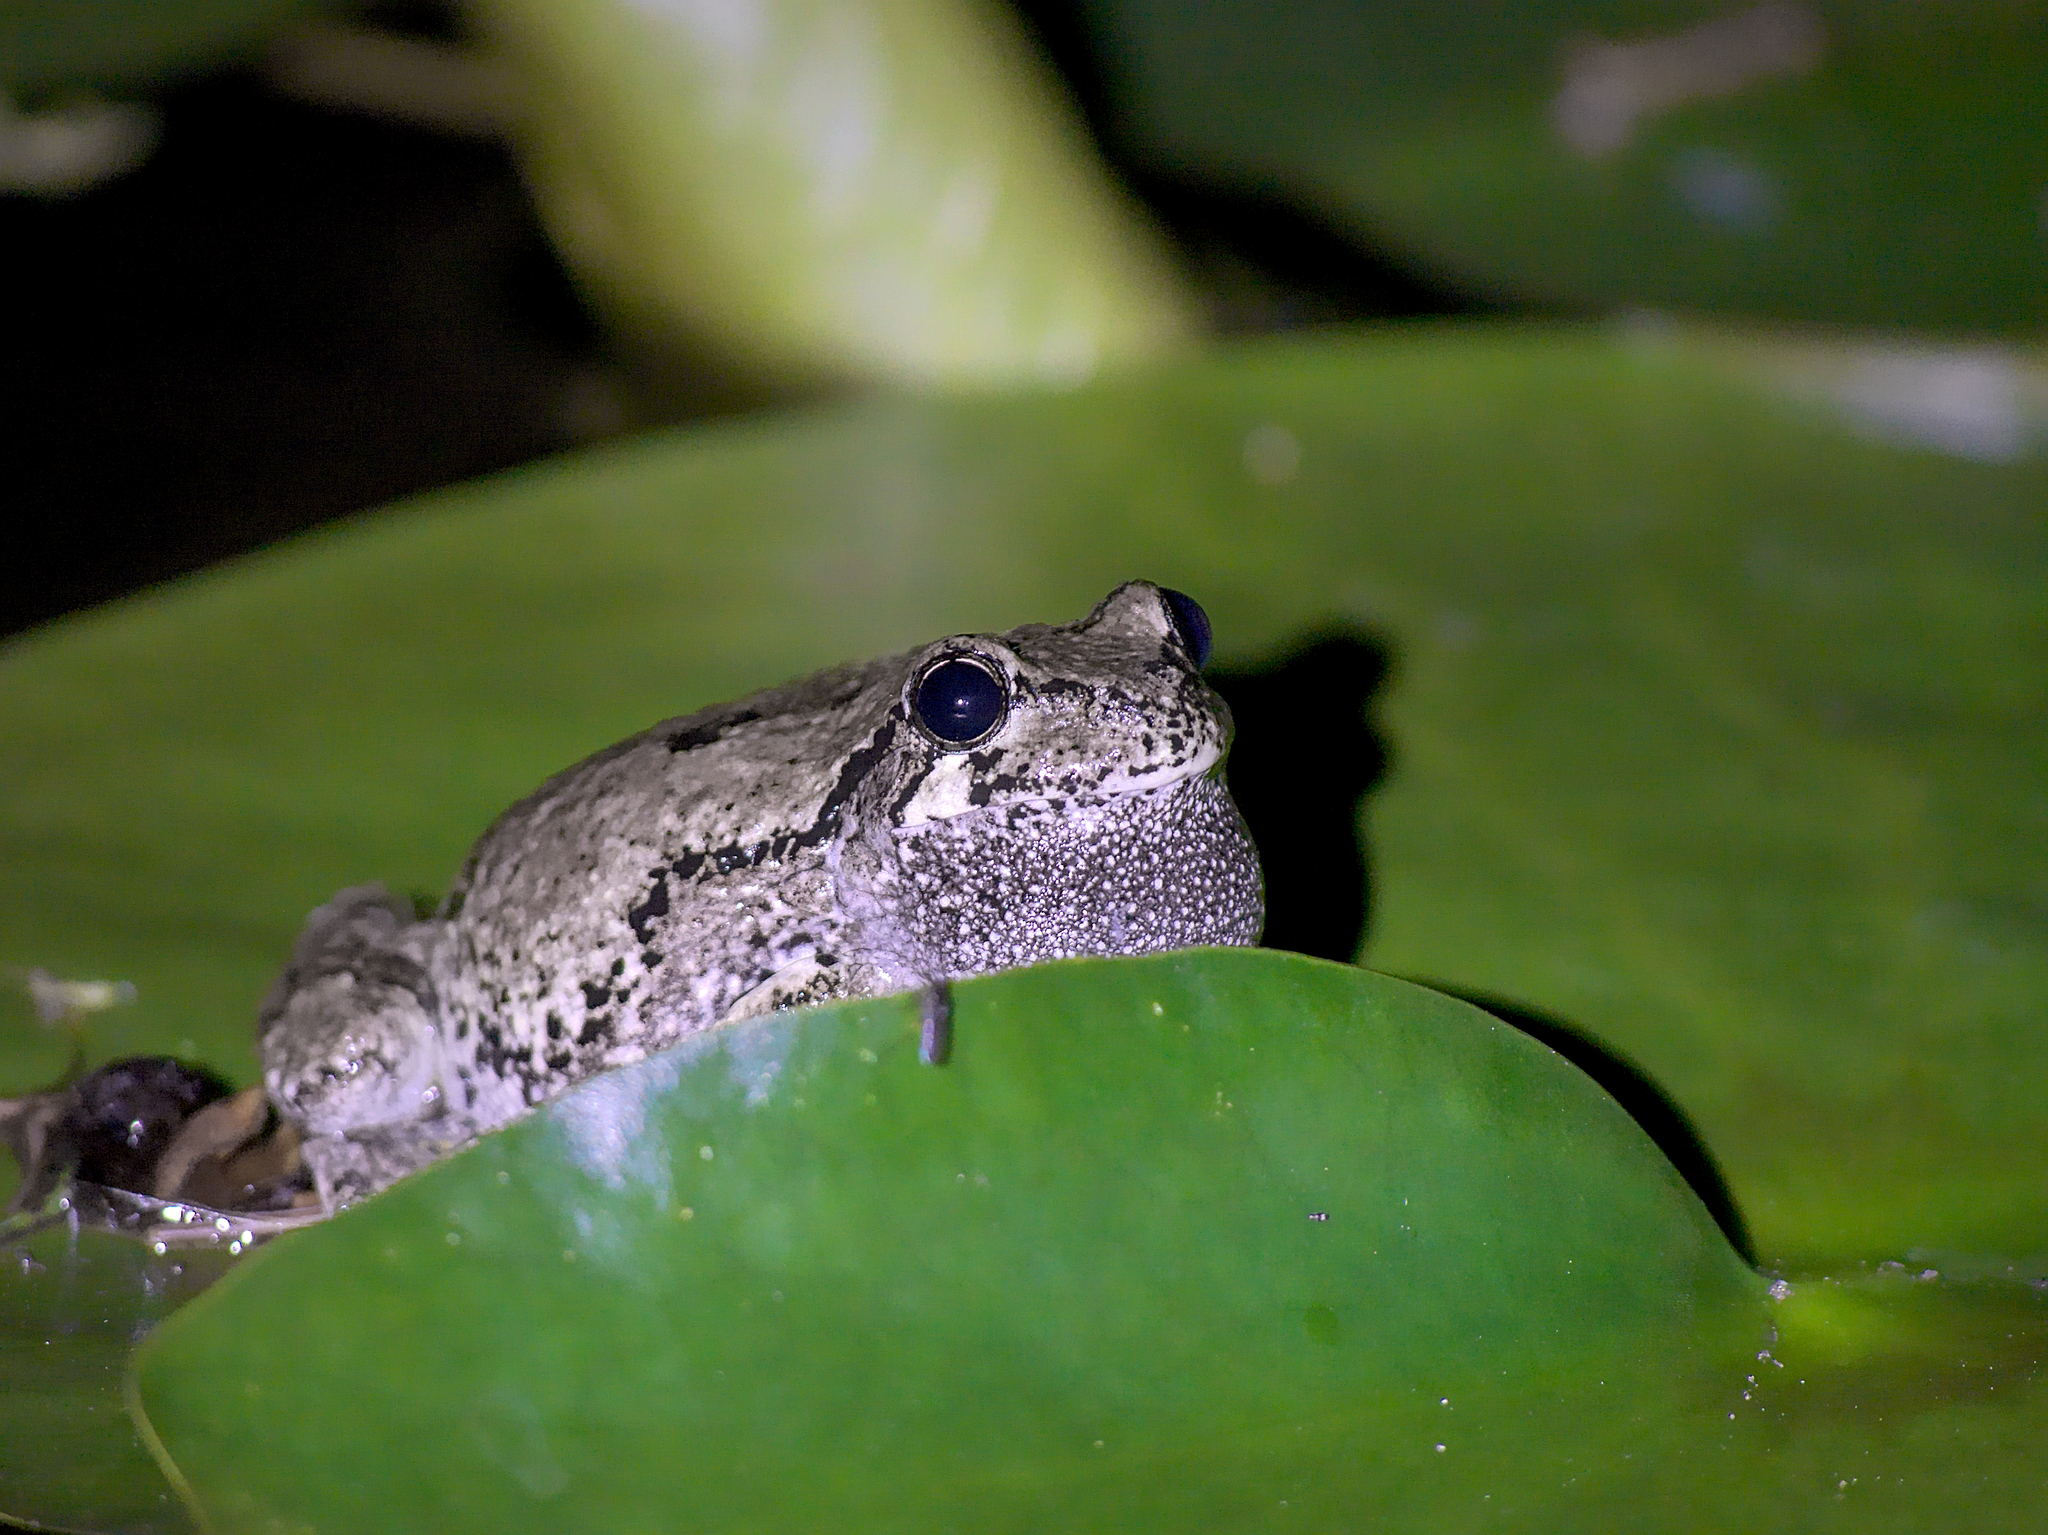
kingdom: Animalia
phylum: Chordata
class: Amphibia
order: Anura
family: Hylidae
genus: Dryophytes
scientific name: Dryophytes versicolor
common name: Gray treefrog
